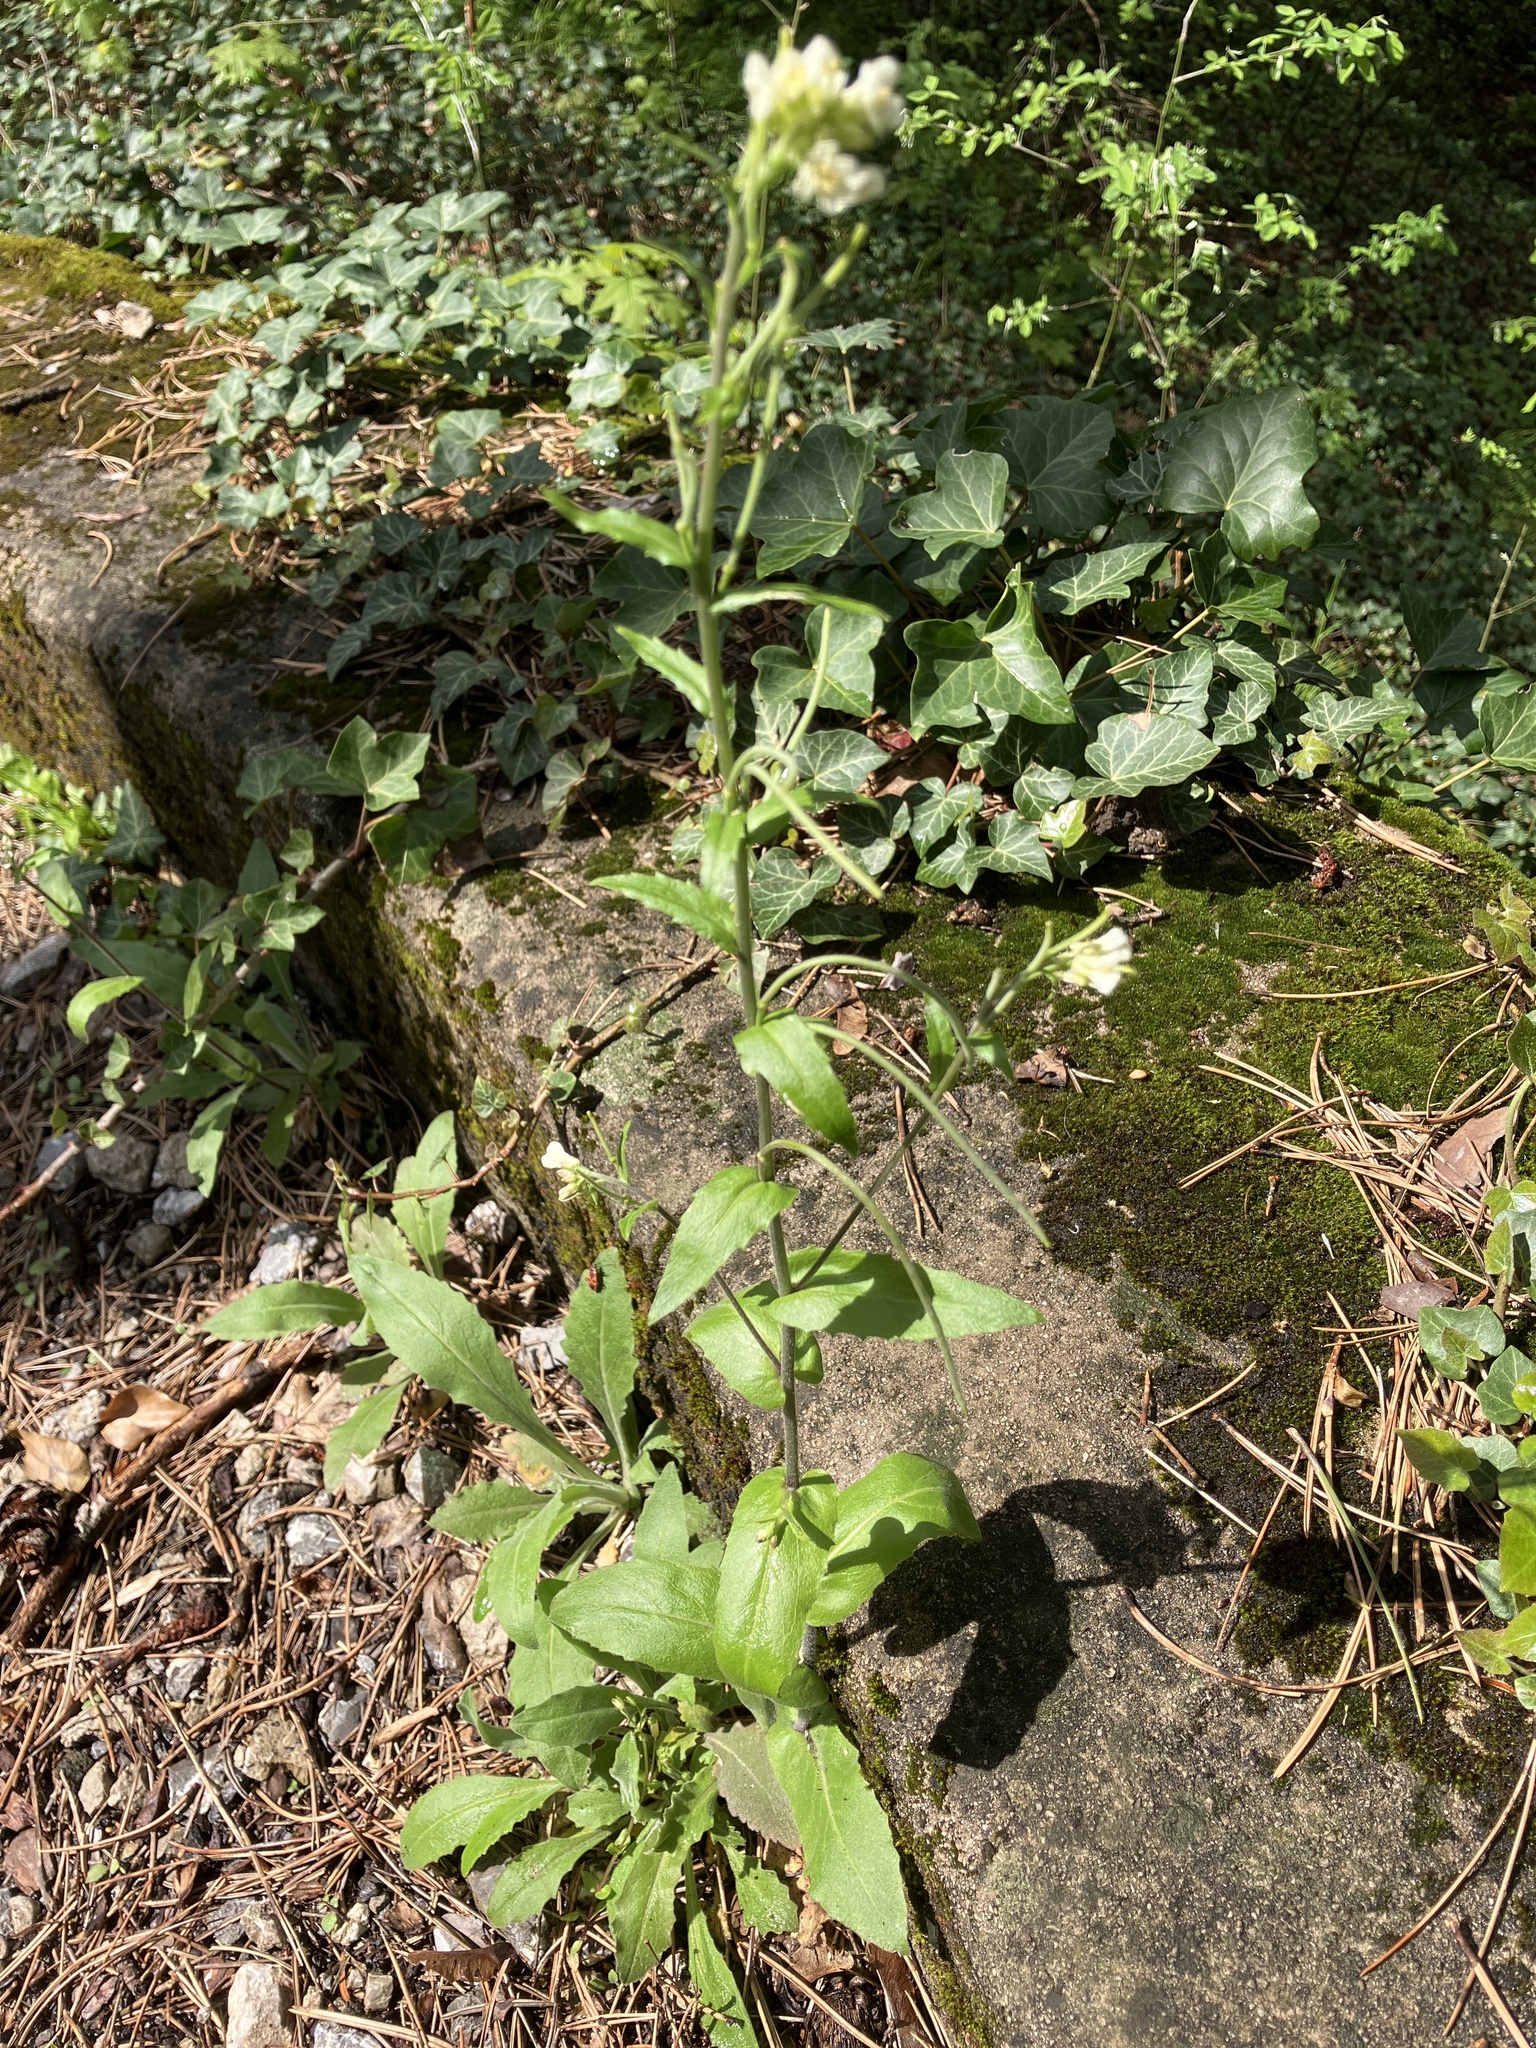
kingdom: Plantae
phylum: Tracheophyta
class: Magnoliopsida
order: Brassicales
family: Brassicaceae
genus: Pseudoturritis
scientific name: Pseudoturritis turrita
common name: Tower cress
